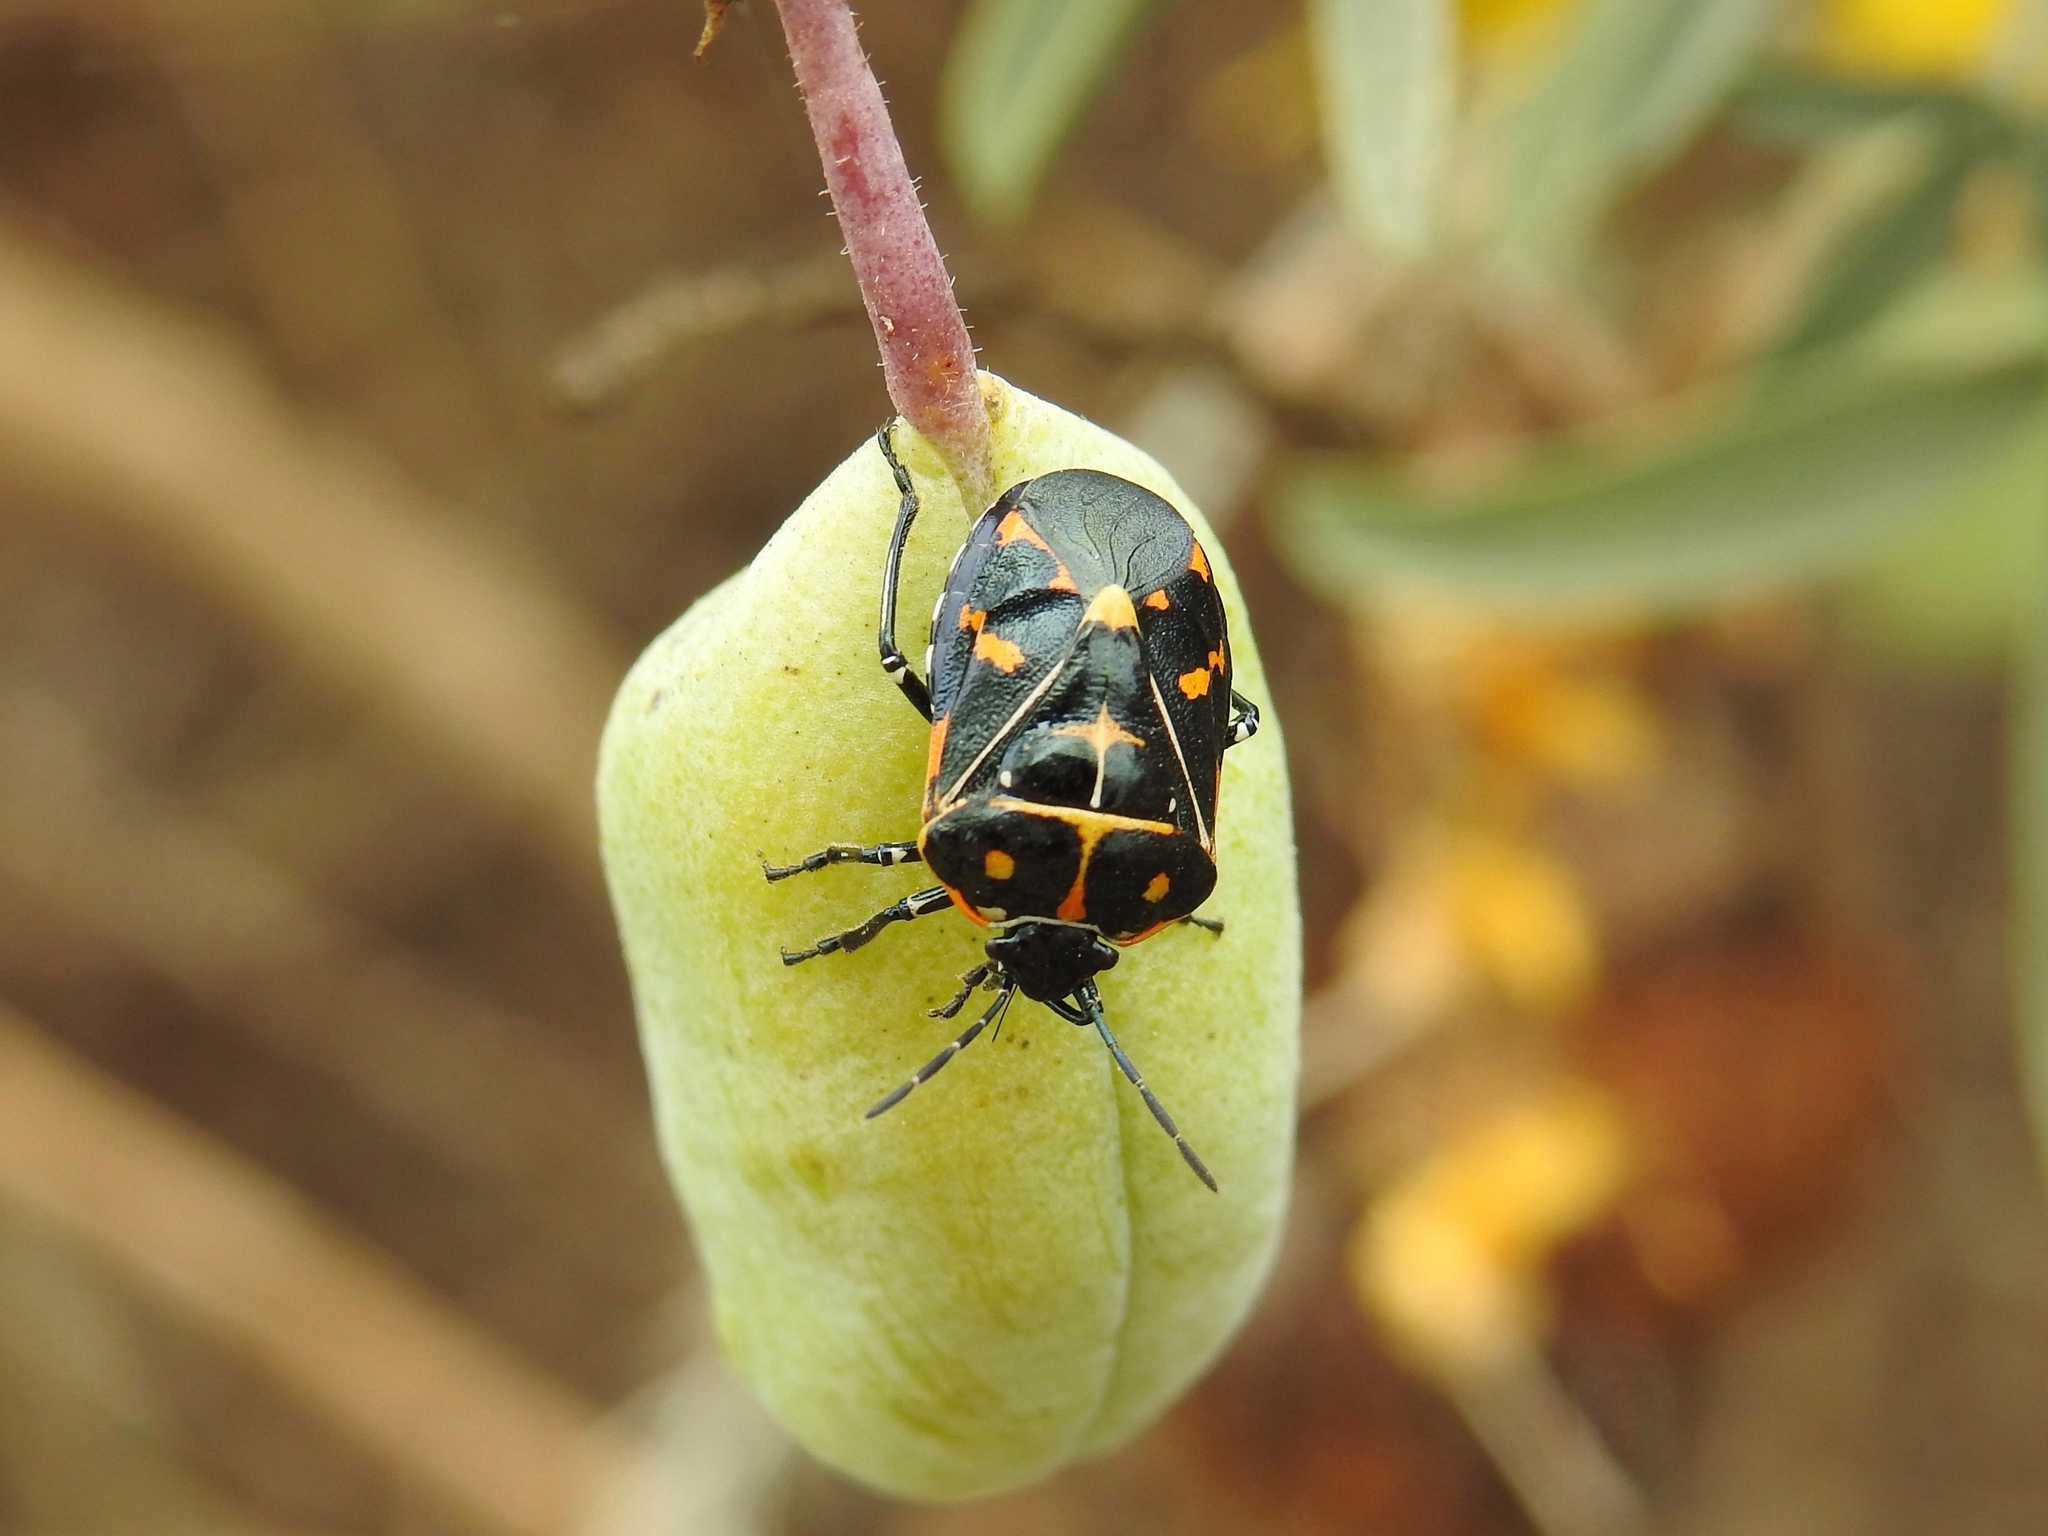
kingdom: Animalia
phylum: Arthropoda
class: Insecta
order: Hemiptera
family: Pentatomidae
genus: Murgantia
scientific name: Murgantia histrionica
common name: Harlequin bug
